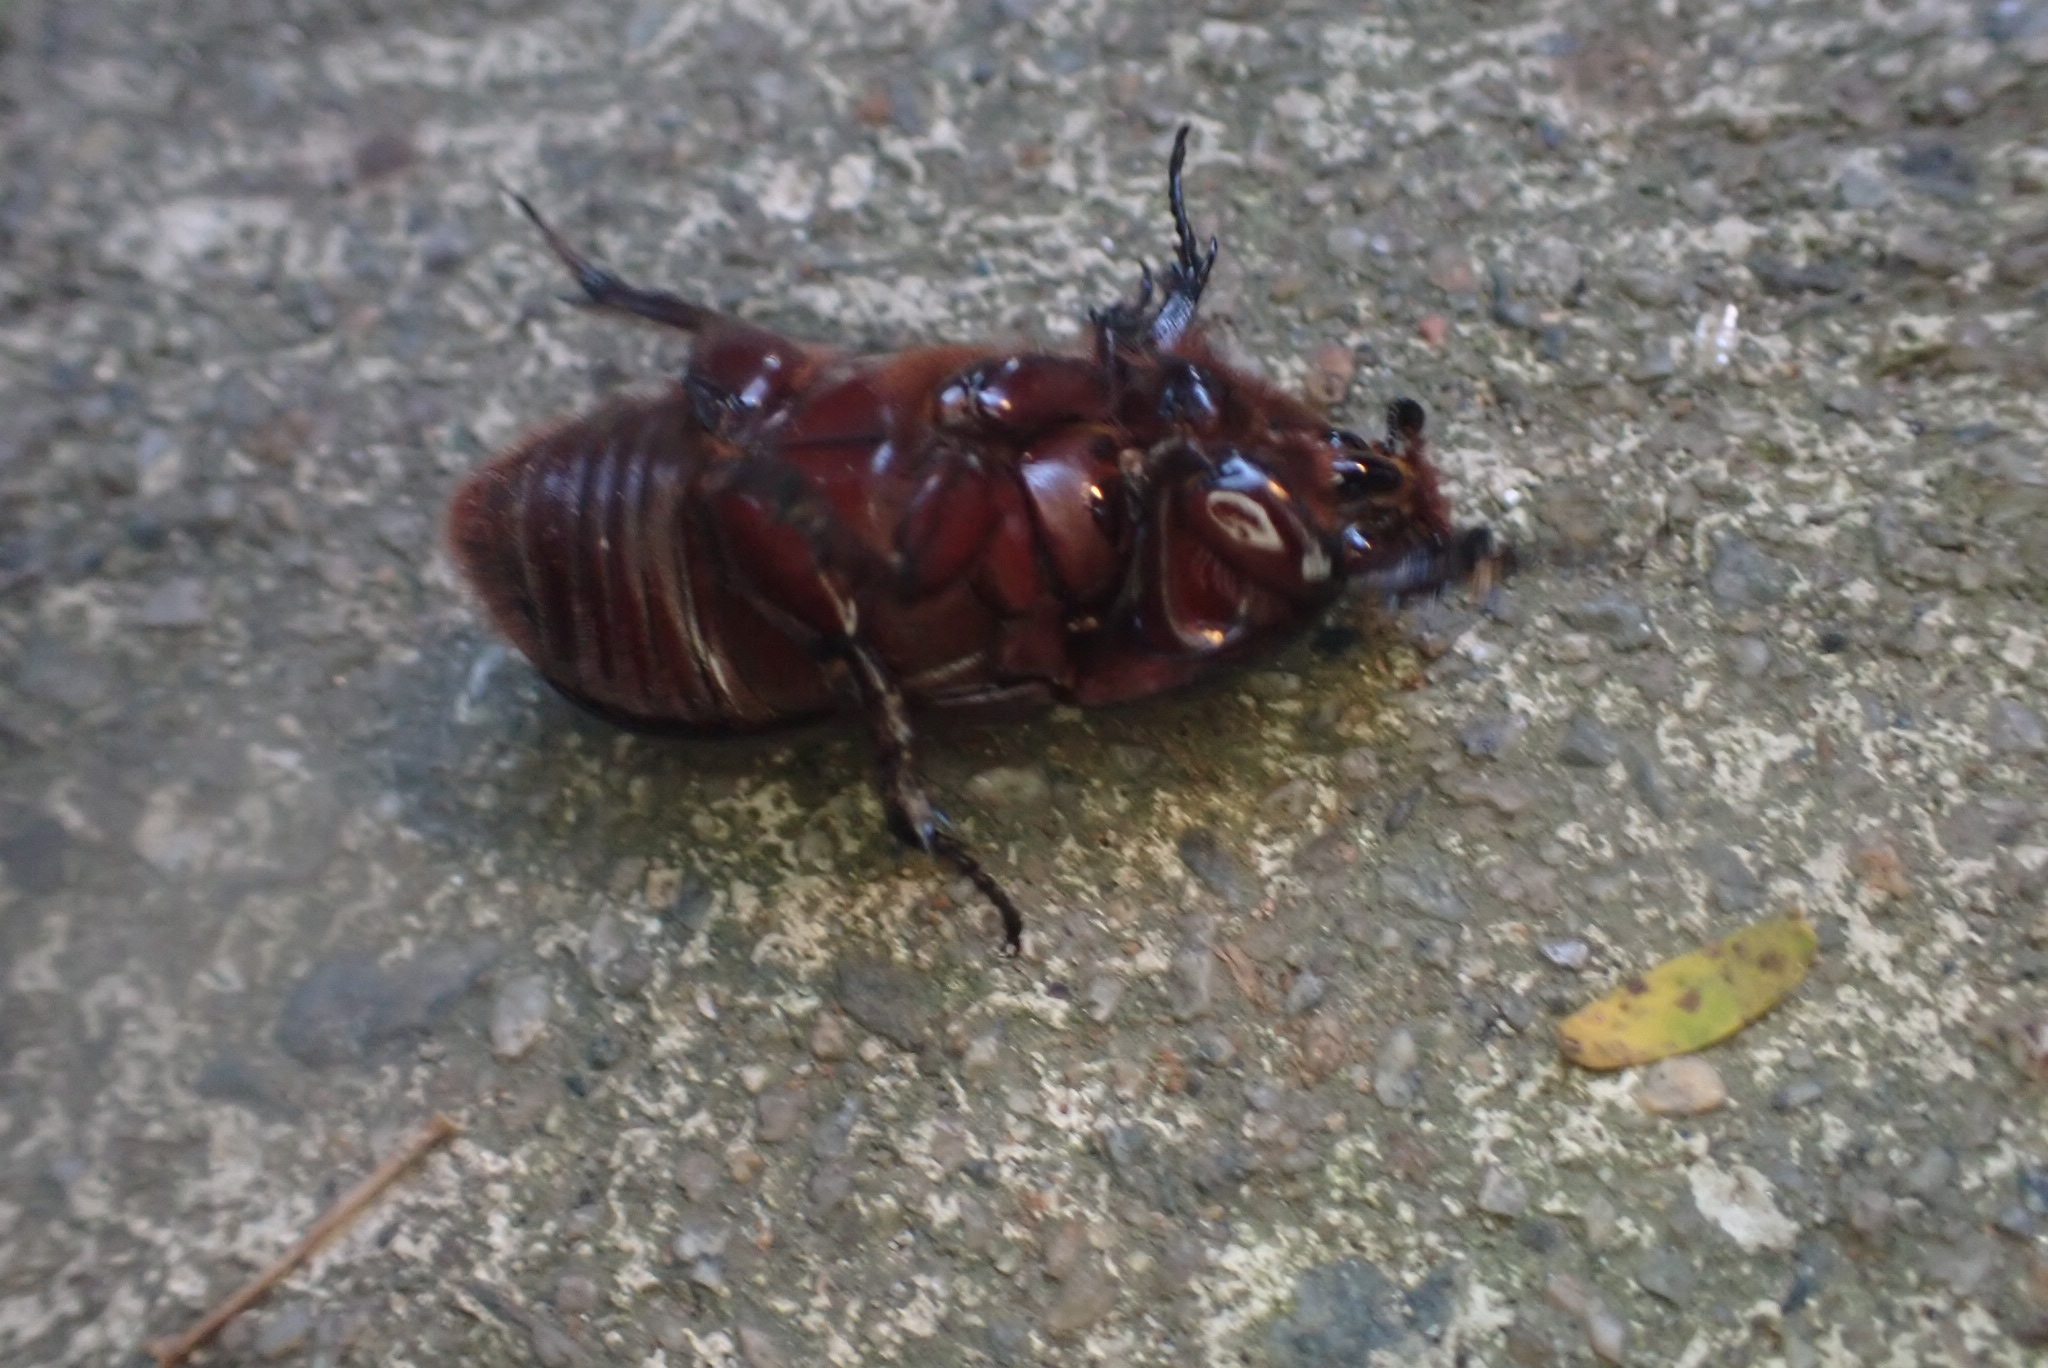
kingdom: Animalia
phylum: Arthropoda
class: Insecta
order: Coleoptera
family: Scarabaeidae
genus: Oryctes
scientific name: Oryctes rhinoceros
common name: Coconut rhinoceros beetle
